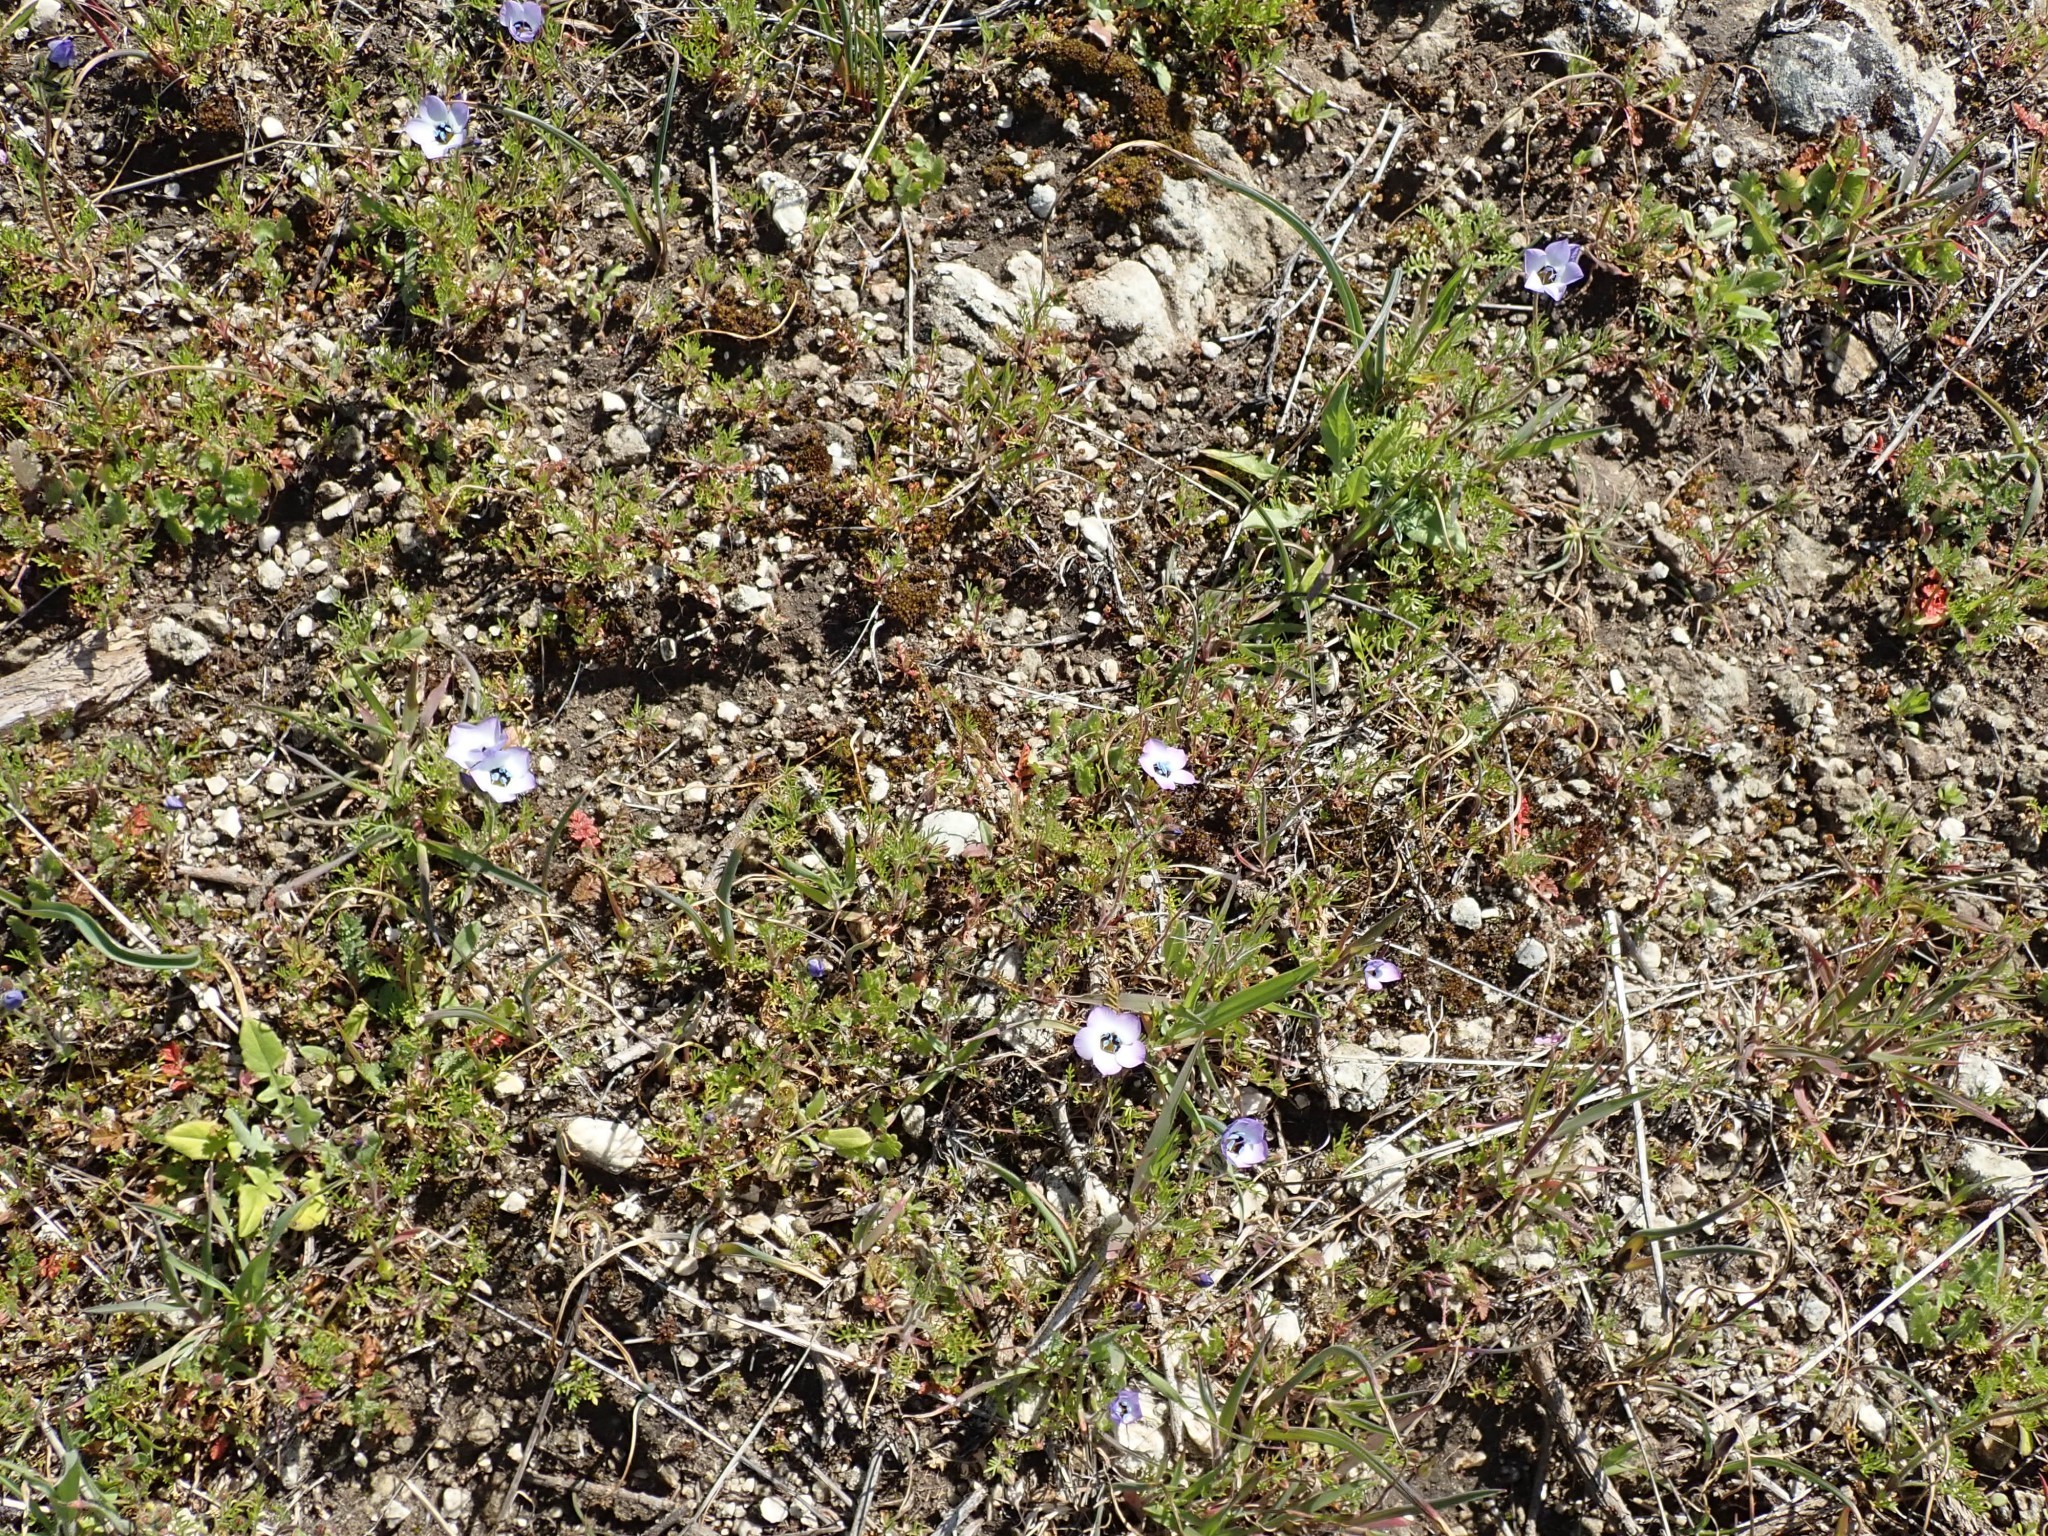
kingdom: Plantae
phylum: Tracheophyta
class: Magnoliopsida
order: Ericales
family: Polemoniaceae
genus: Gilia
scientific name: Gilia tricolor
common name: Bird's-eyes
